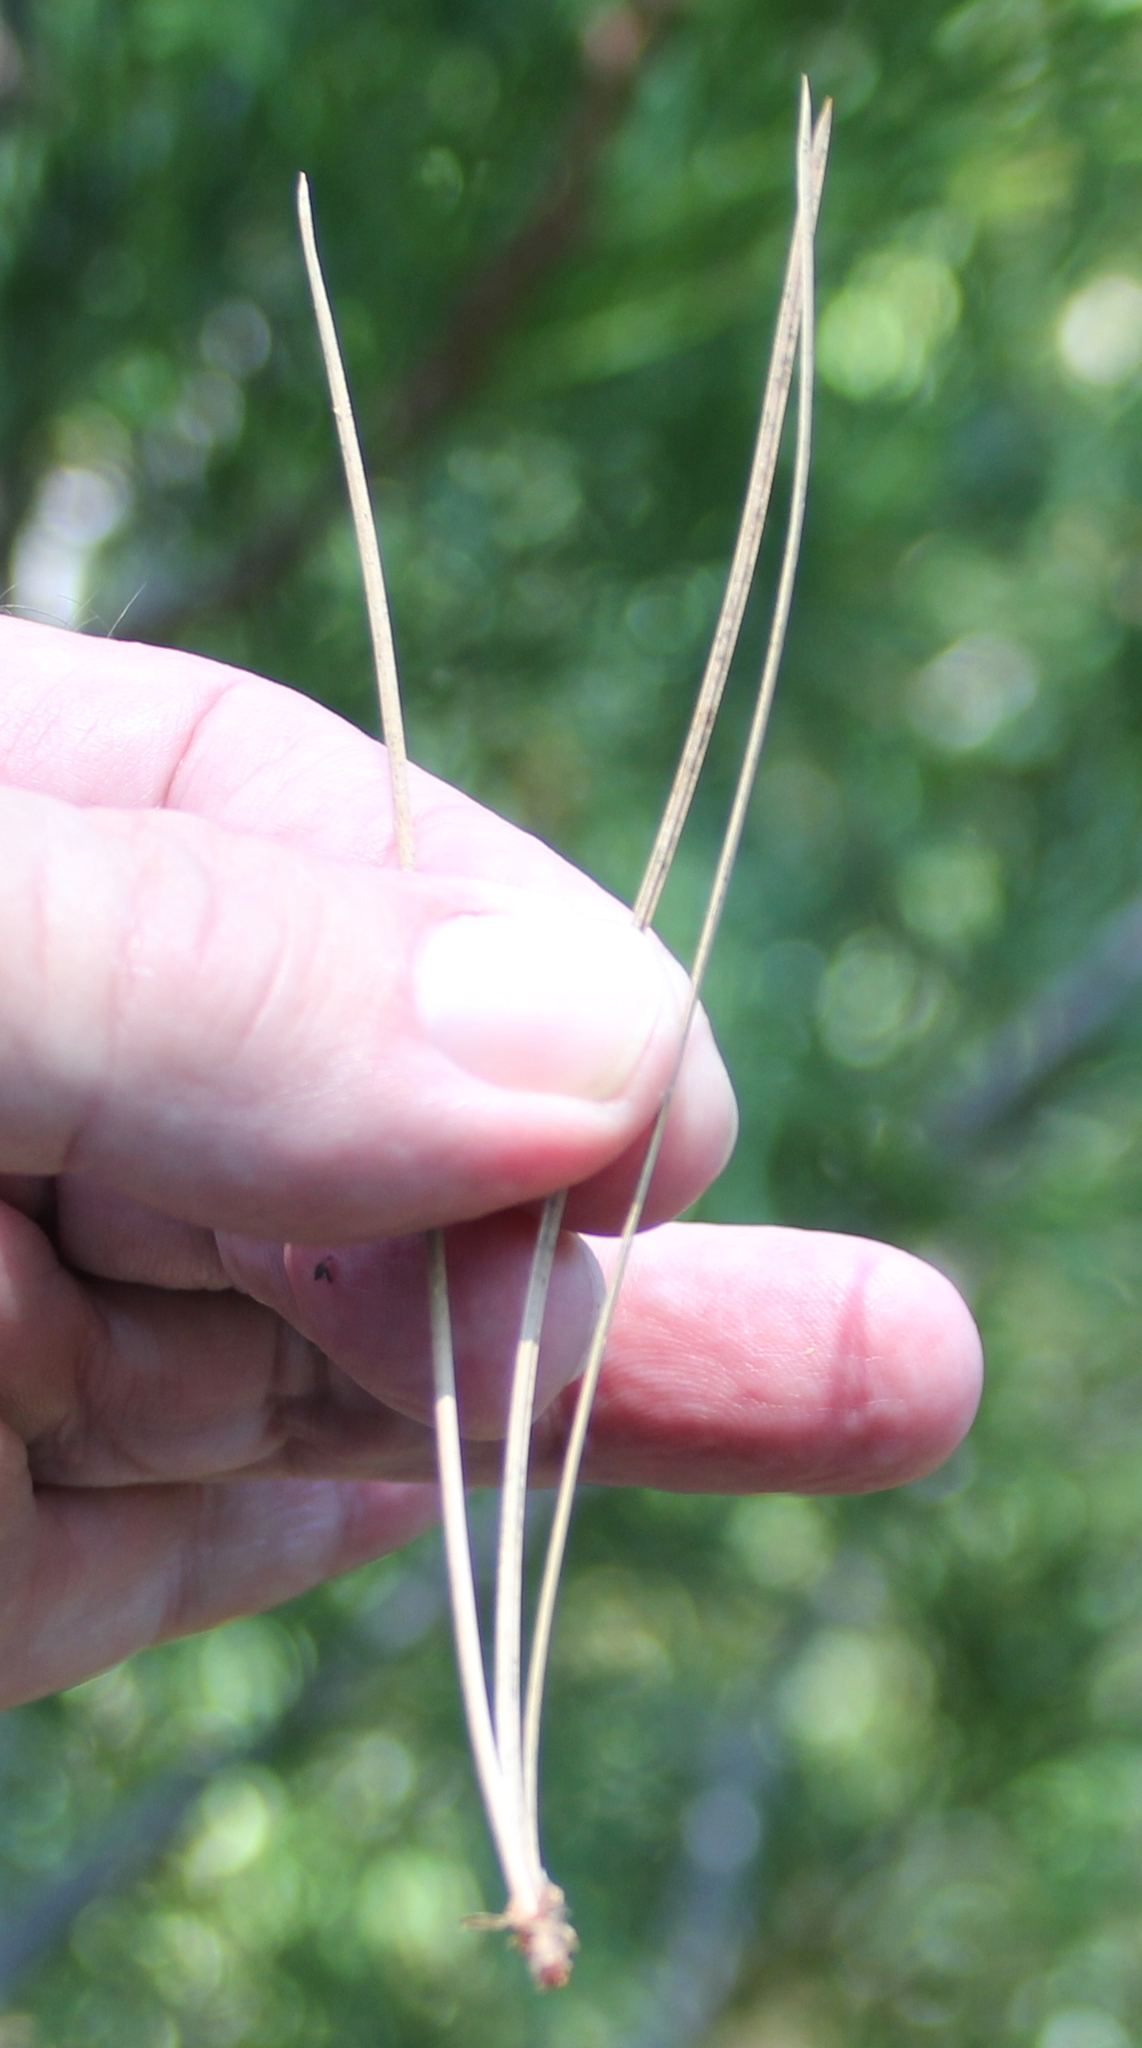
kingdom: Plantae
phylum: Tracheophyta
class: Pinopsida
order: Pinales
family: Pinaceae
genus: Pinus
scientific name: Pinus ponderosa
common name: Western yellow-pine
